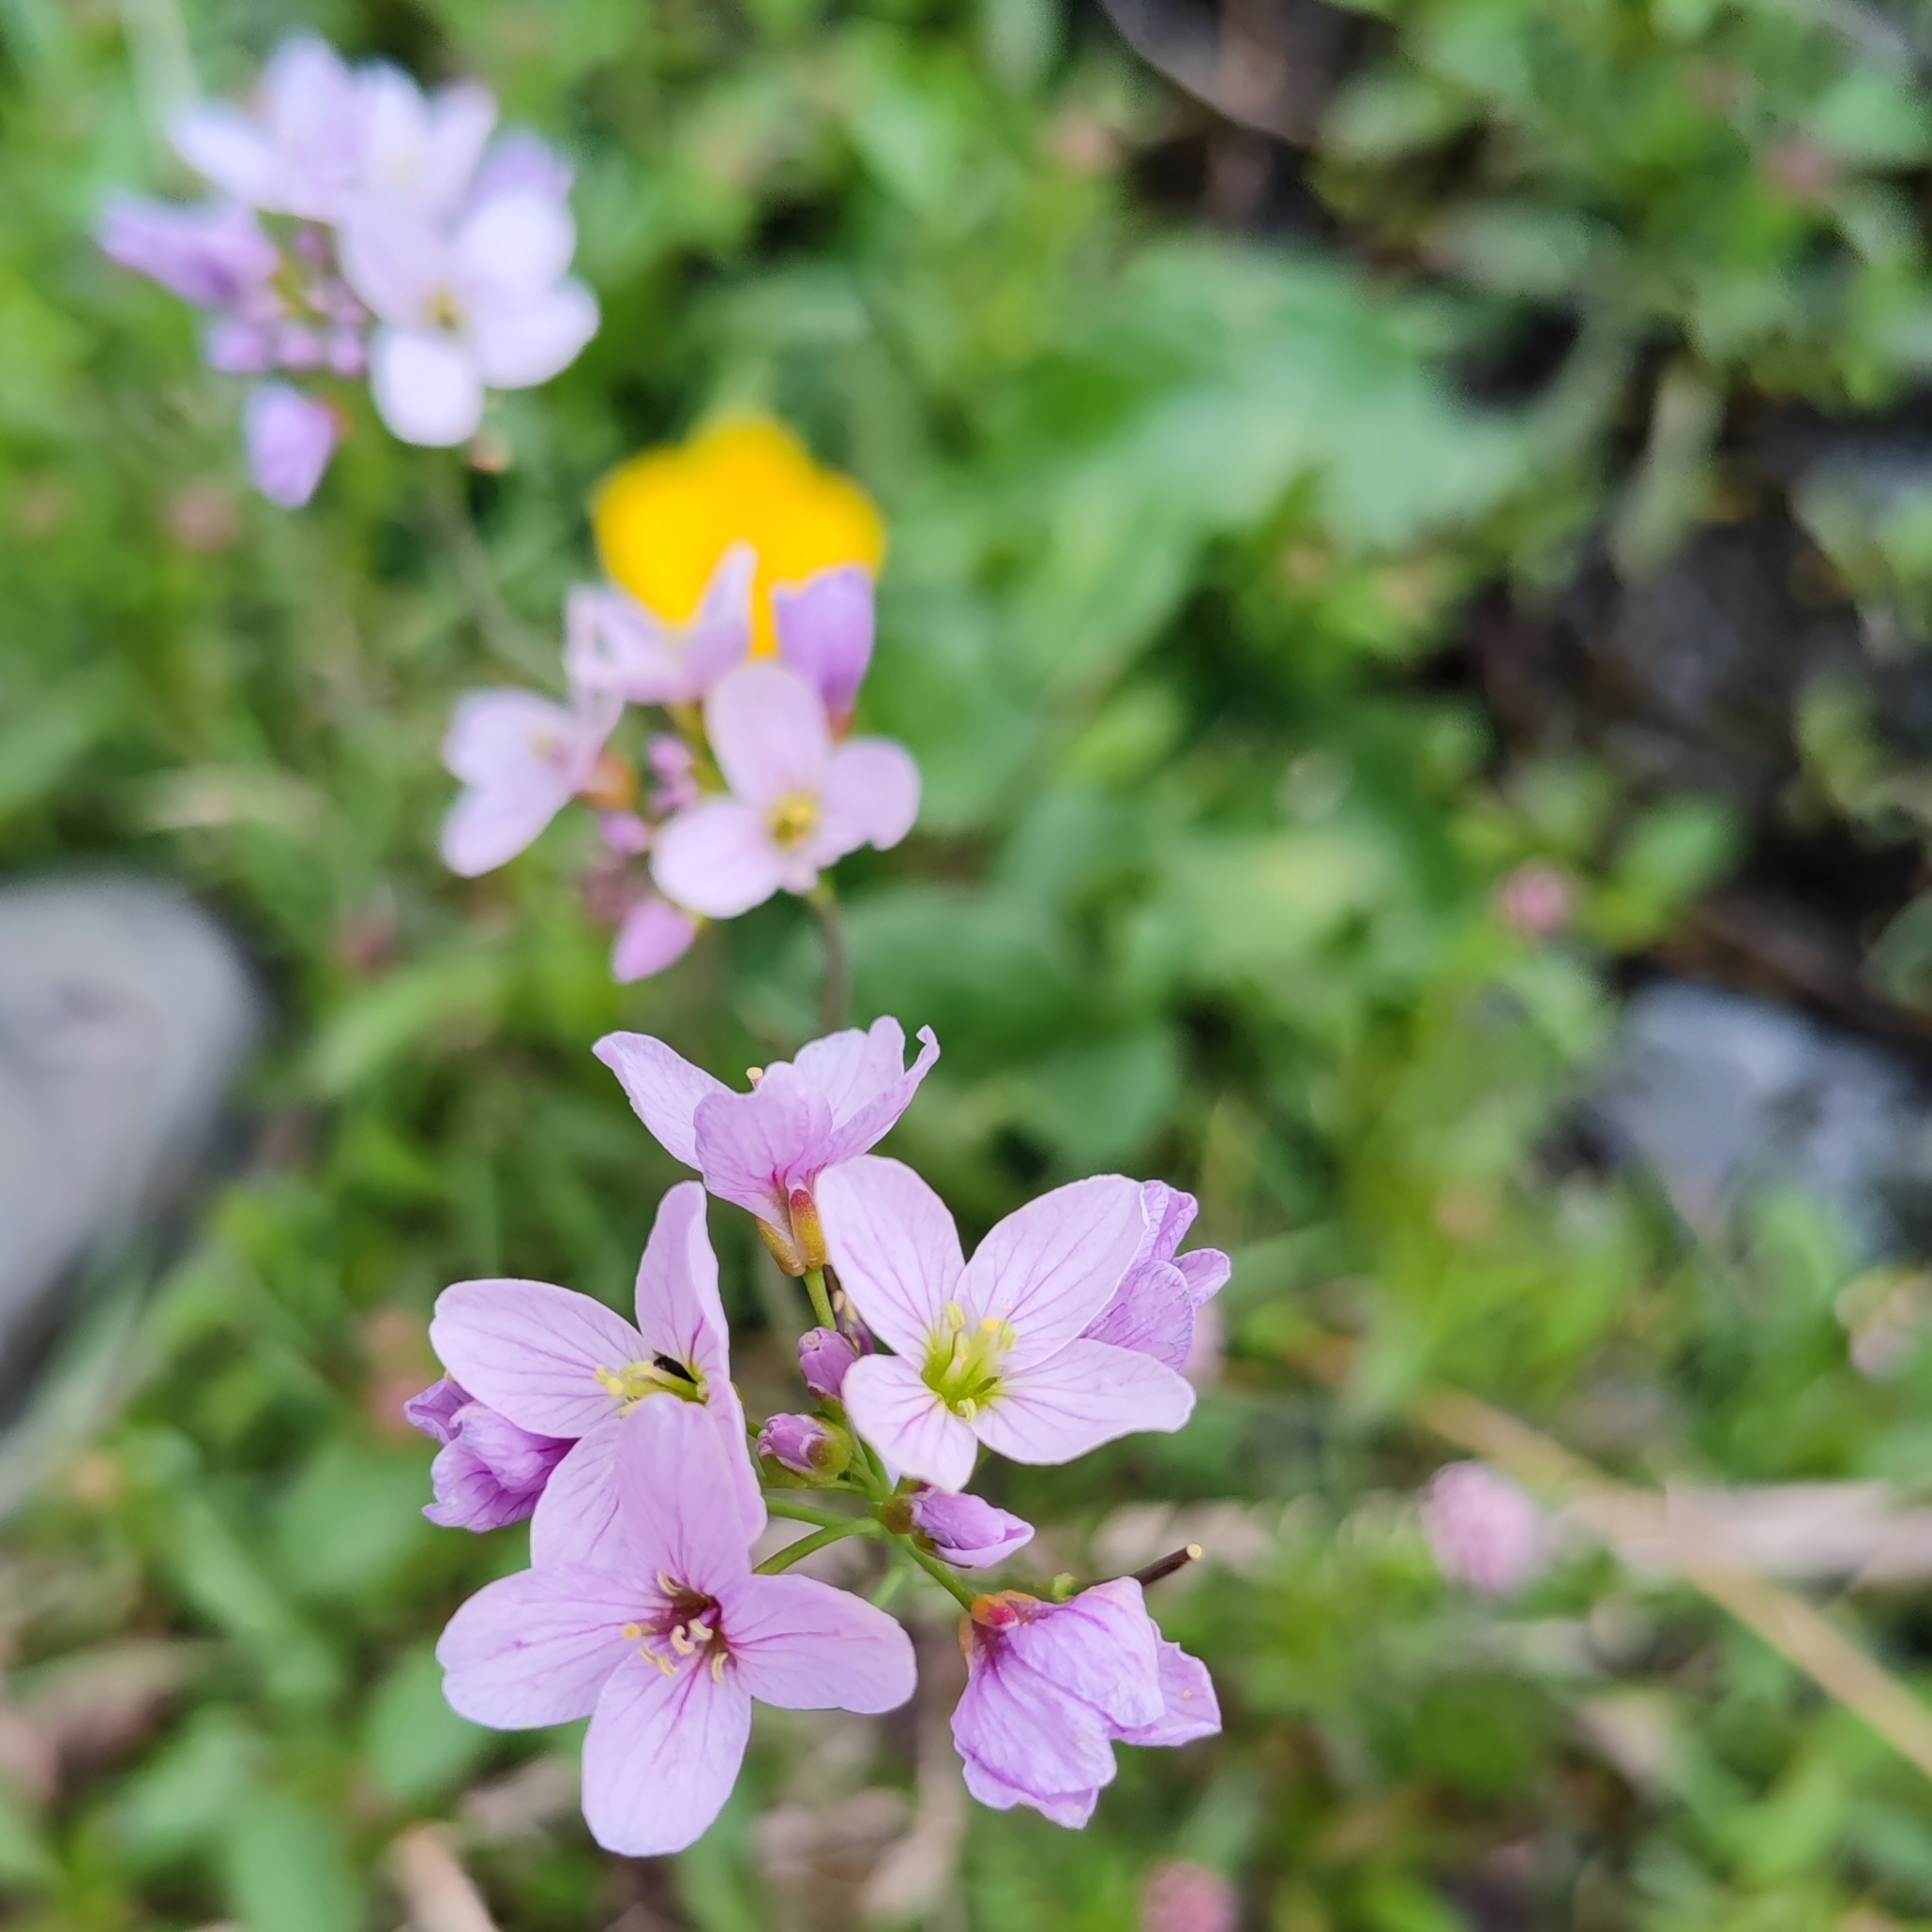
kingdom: Plantae
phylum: Tracheophyta
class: Magnoliopsida
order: Brassicales
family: Brassicaceae
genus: Cardamine
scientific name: Cardamine pratensis
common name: Cuckoo flower
